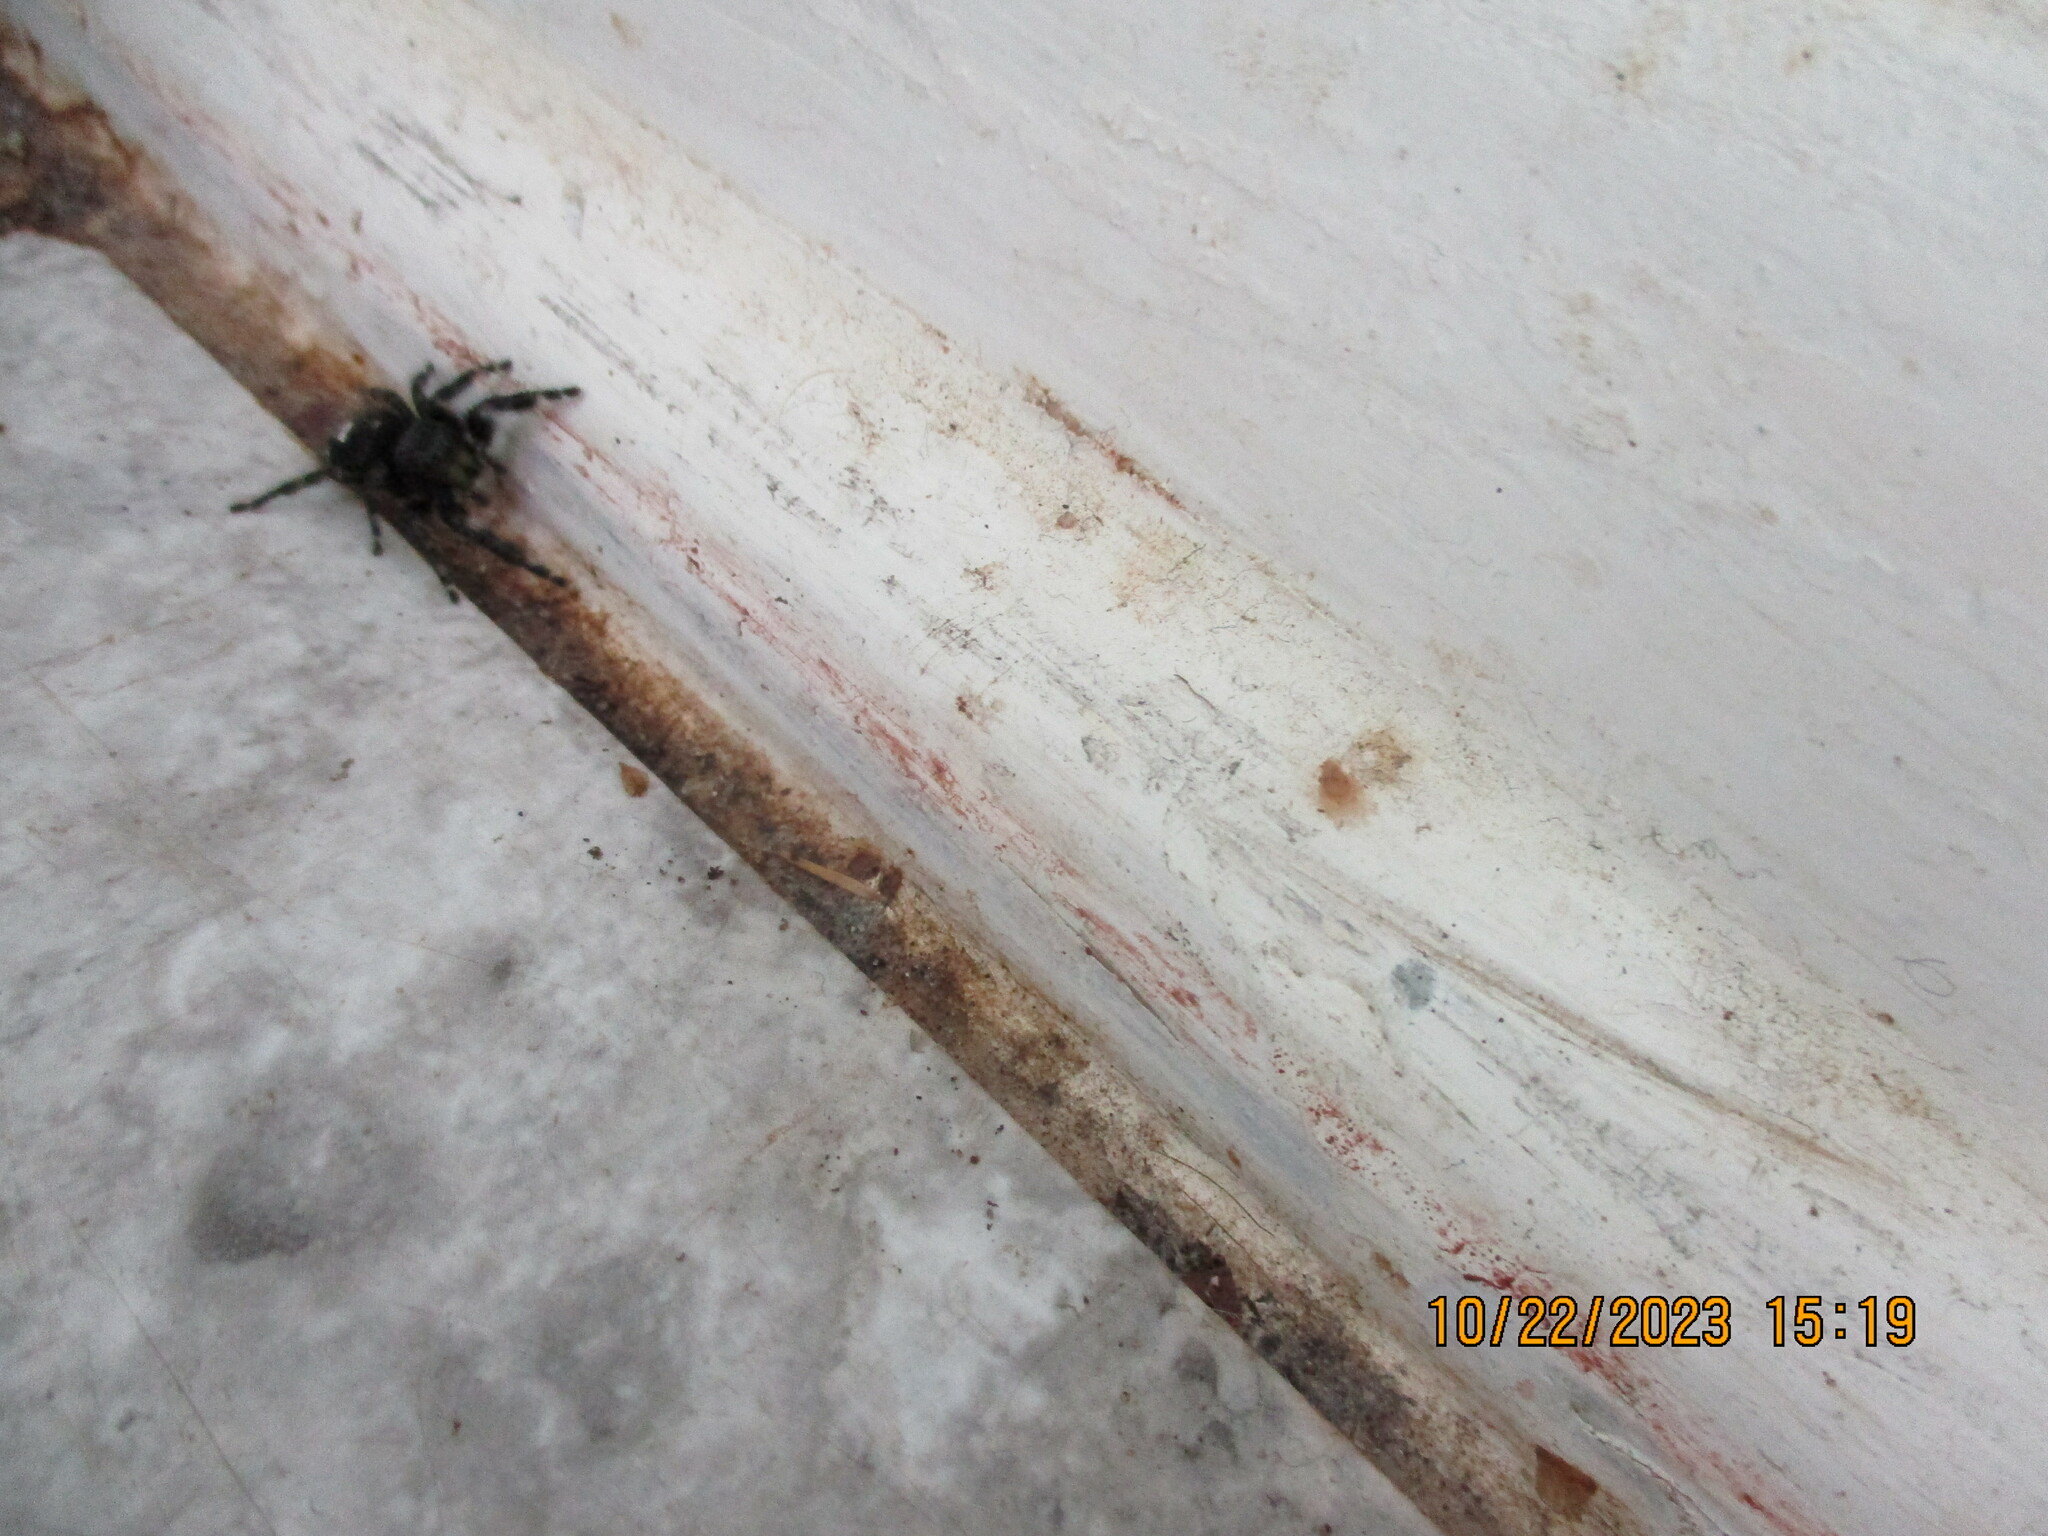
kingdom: Animalia
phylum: Arthropoda
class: Arachnida
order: Araneae
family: Salticidae
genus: Phidippus
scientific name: Phidippus audax
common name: Bold jumper
